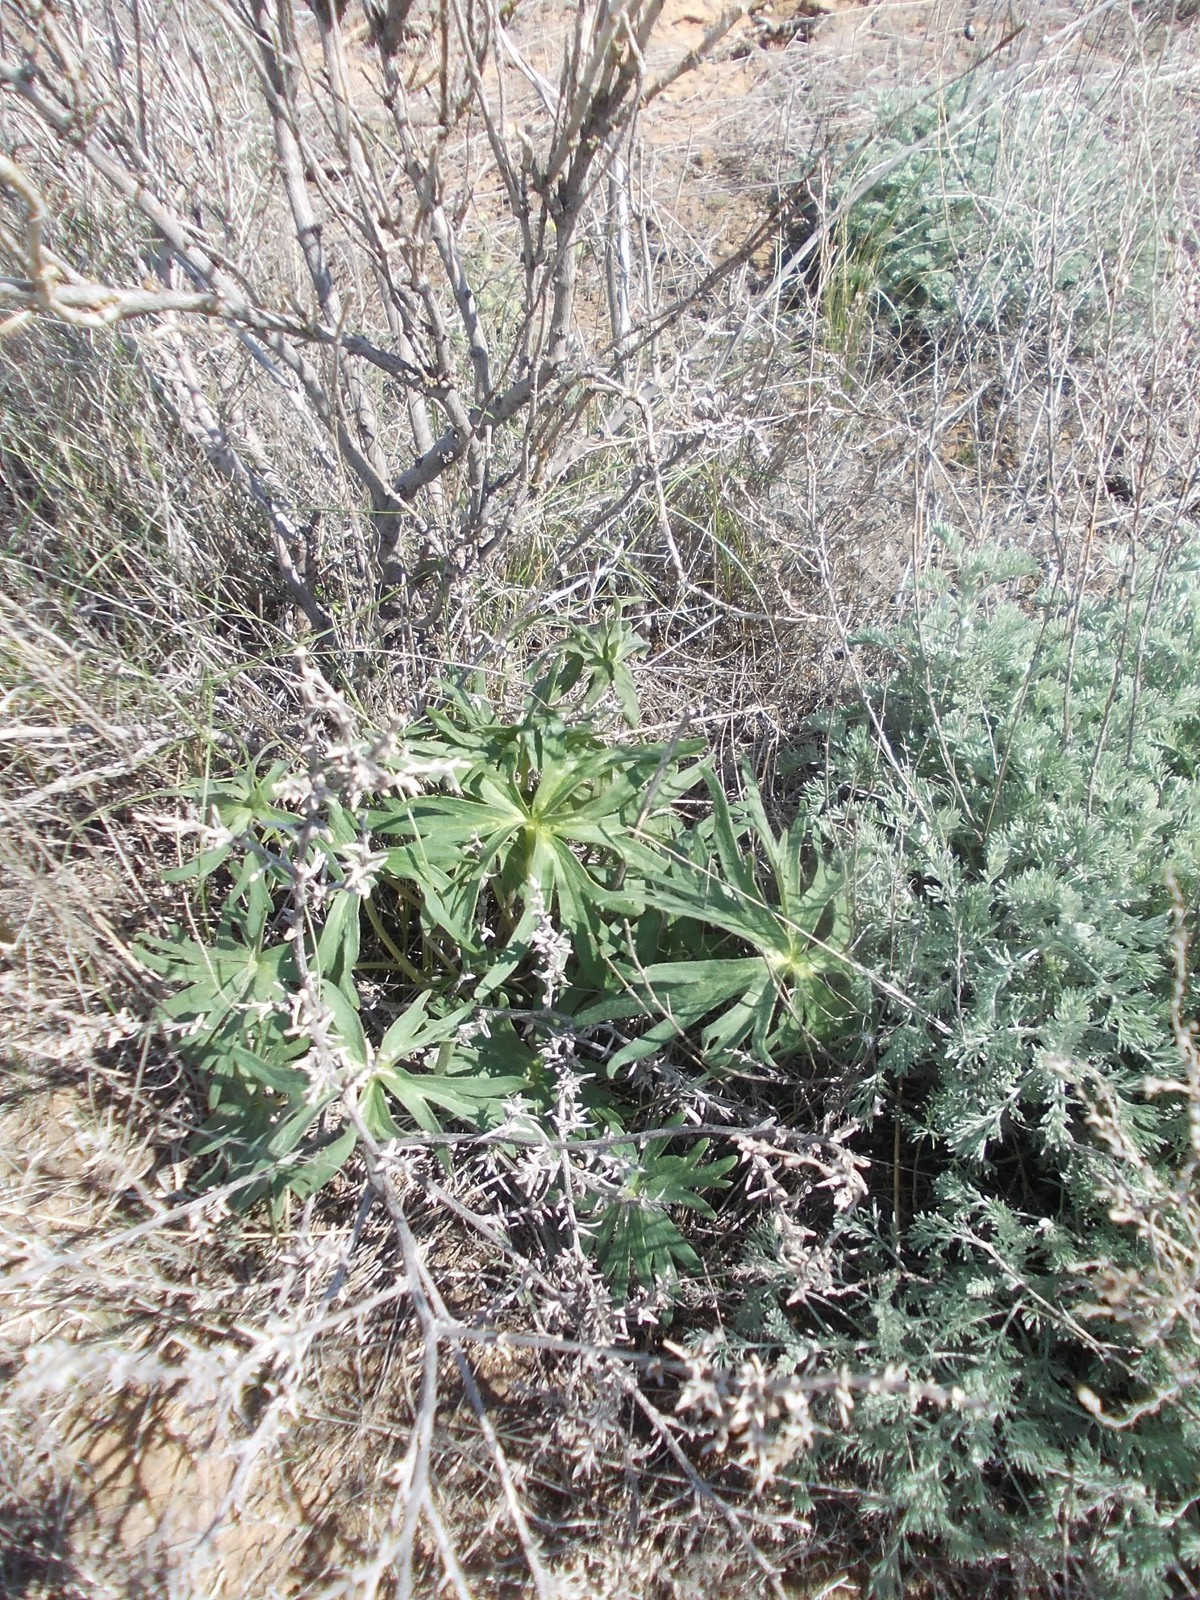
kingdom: Plantae
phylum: Tracheophyta
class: Magnoliopsida
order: Ranunculales
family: Ranunculaceae
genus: Delphinium
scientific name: Delphinium puniceum
